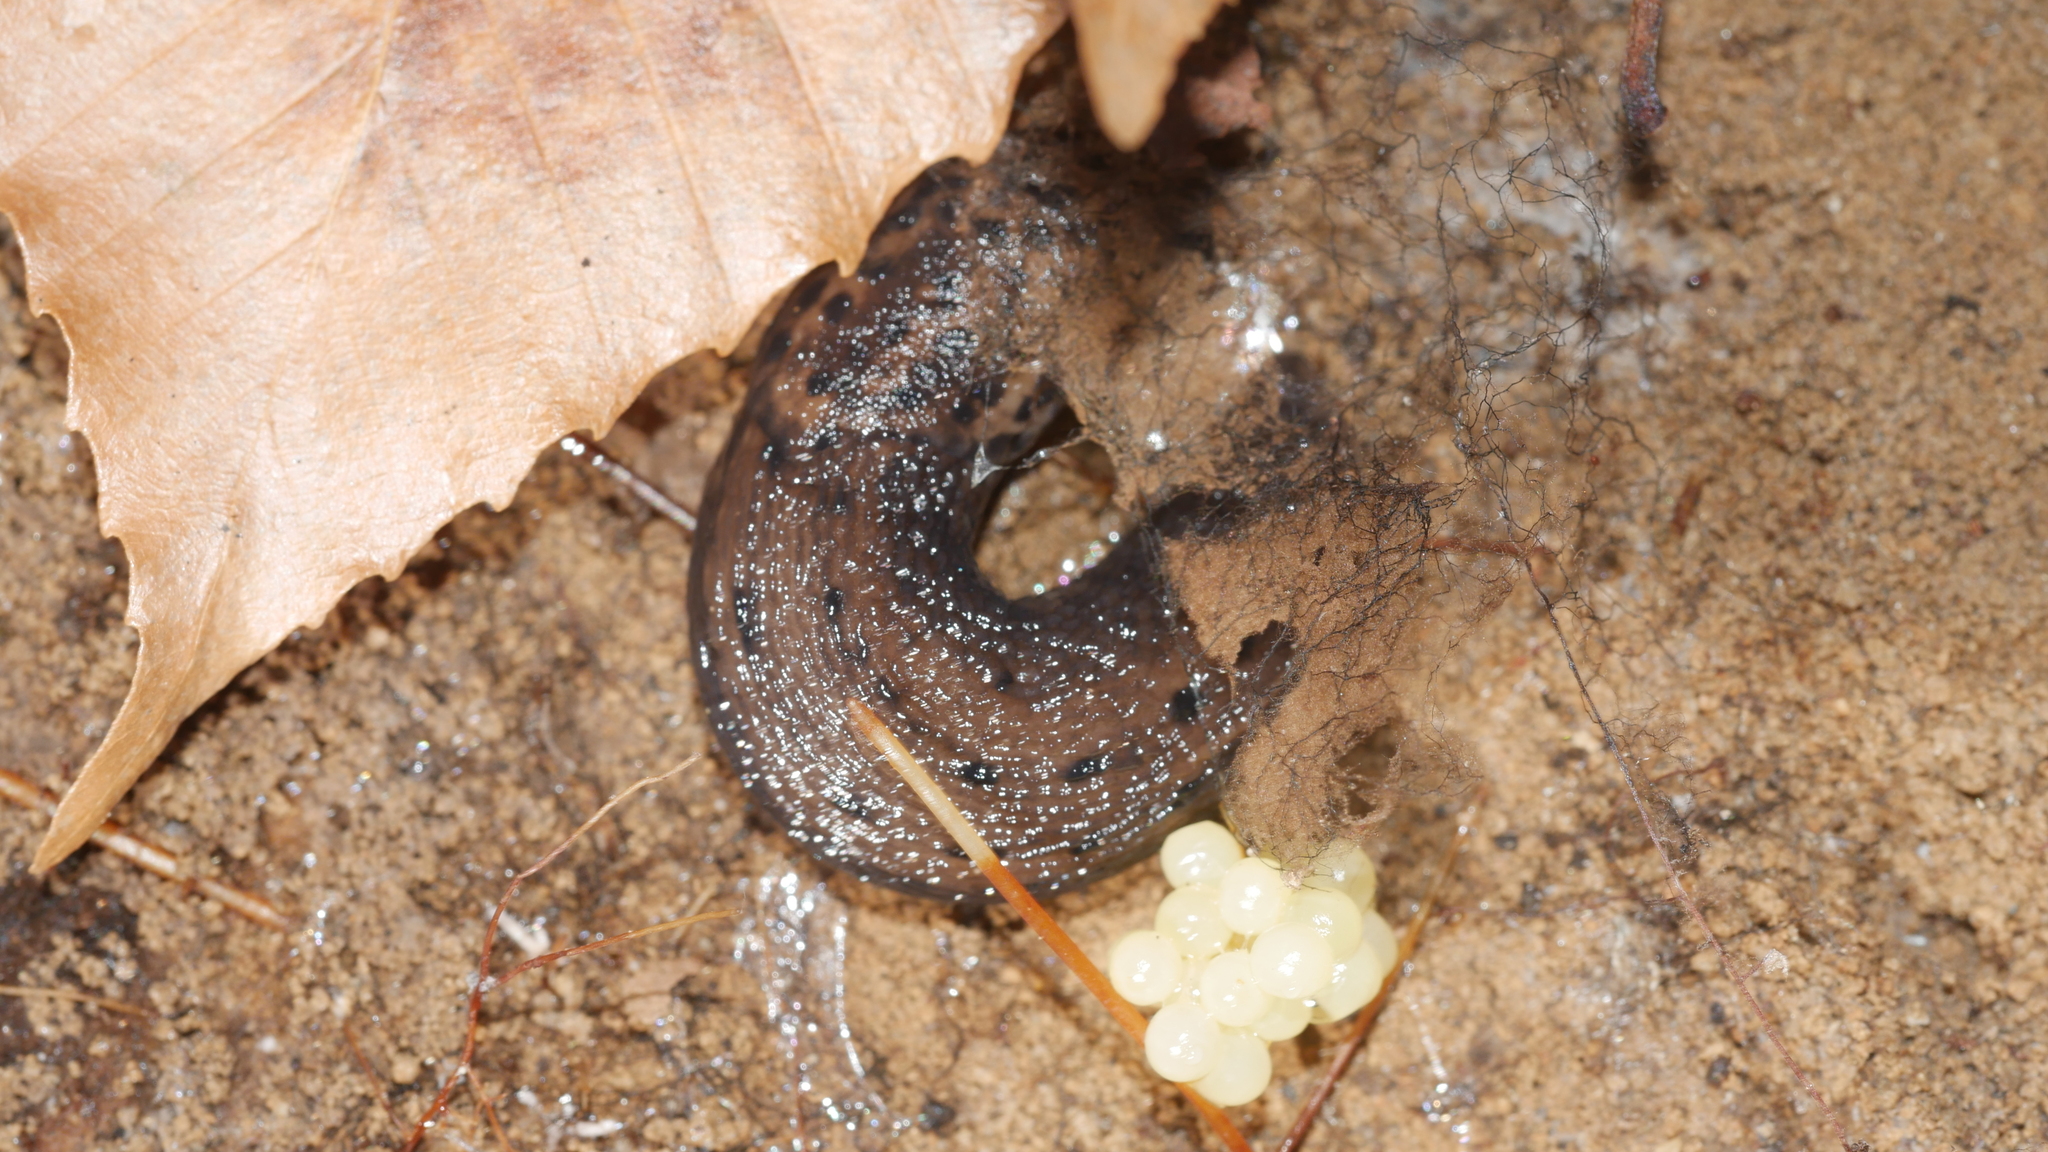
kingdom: Animalia
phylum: Mollusca
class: Gastropoda
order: Stylommatophora
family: Limacidae
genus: Limax
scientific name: Limax maximus
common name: Great grey slug
